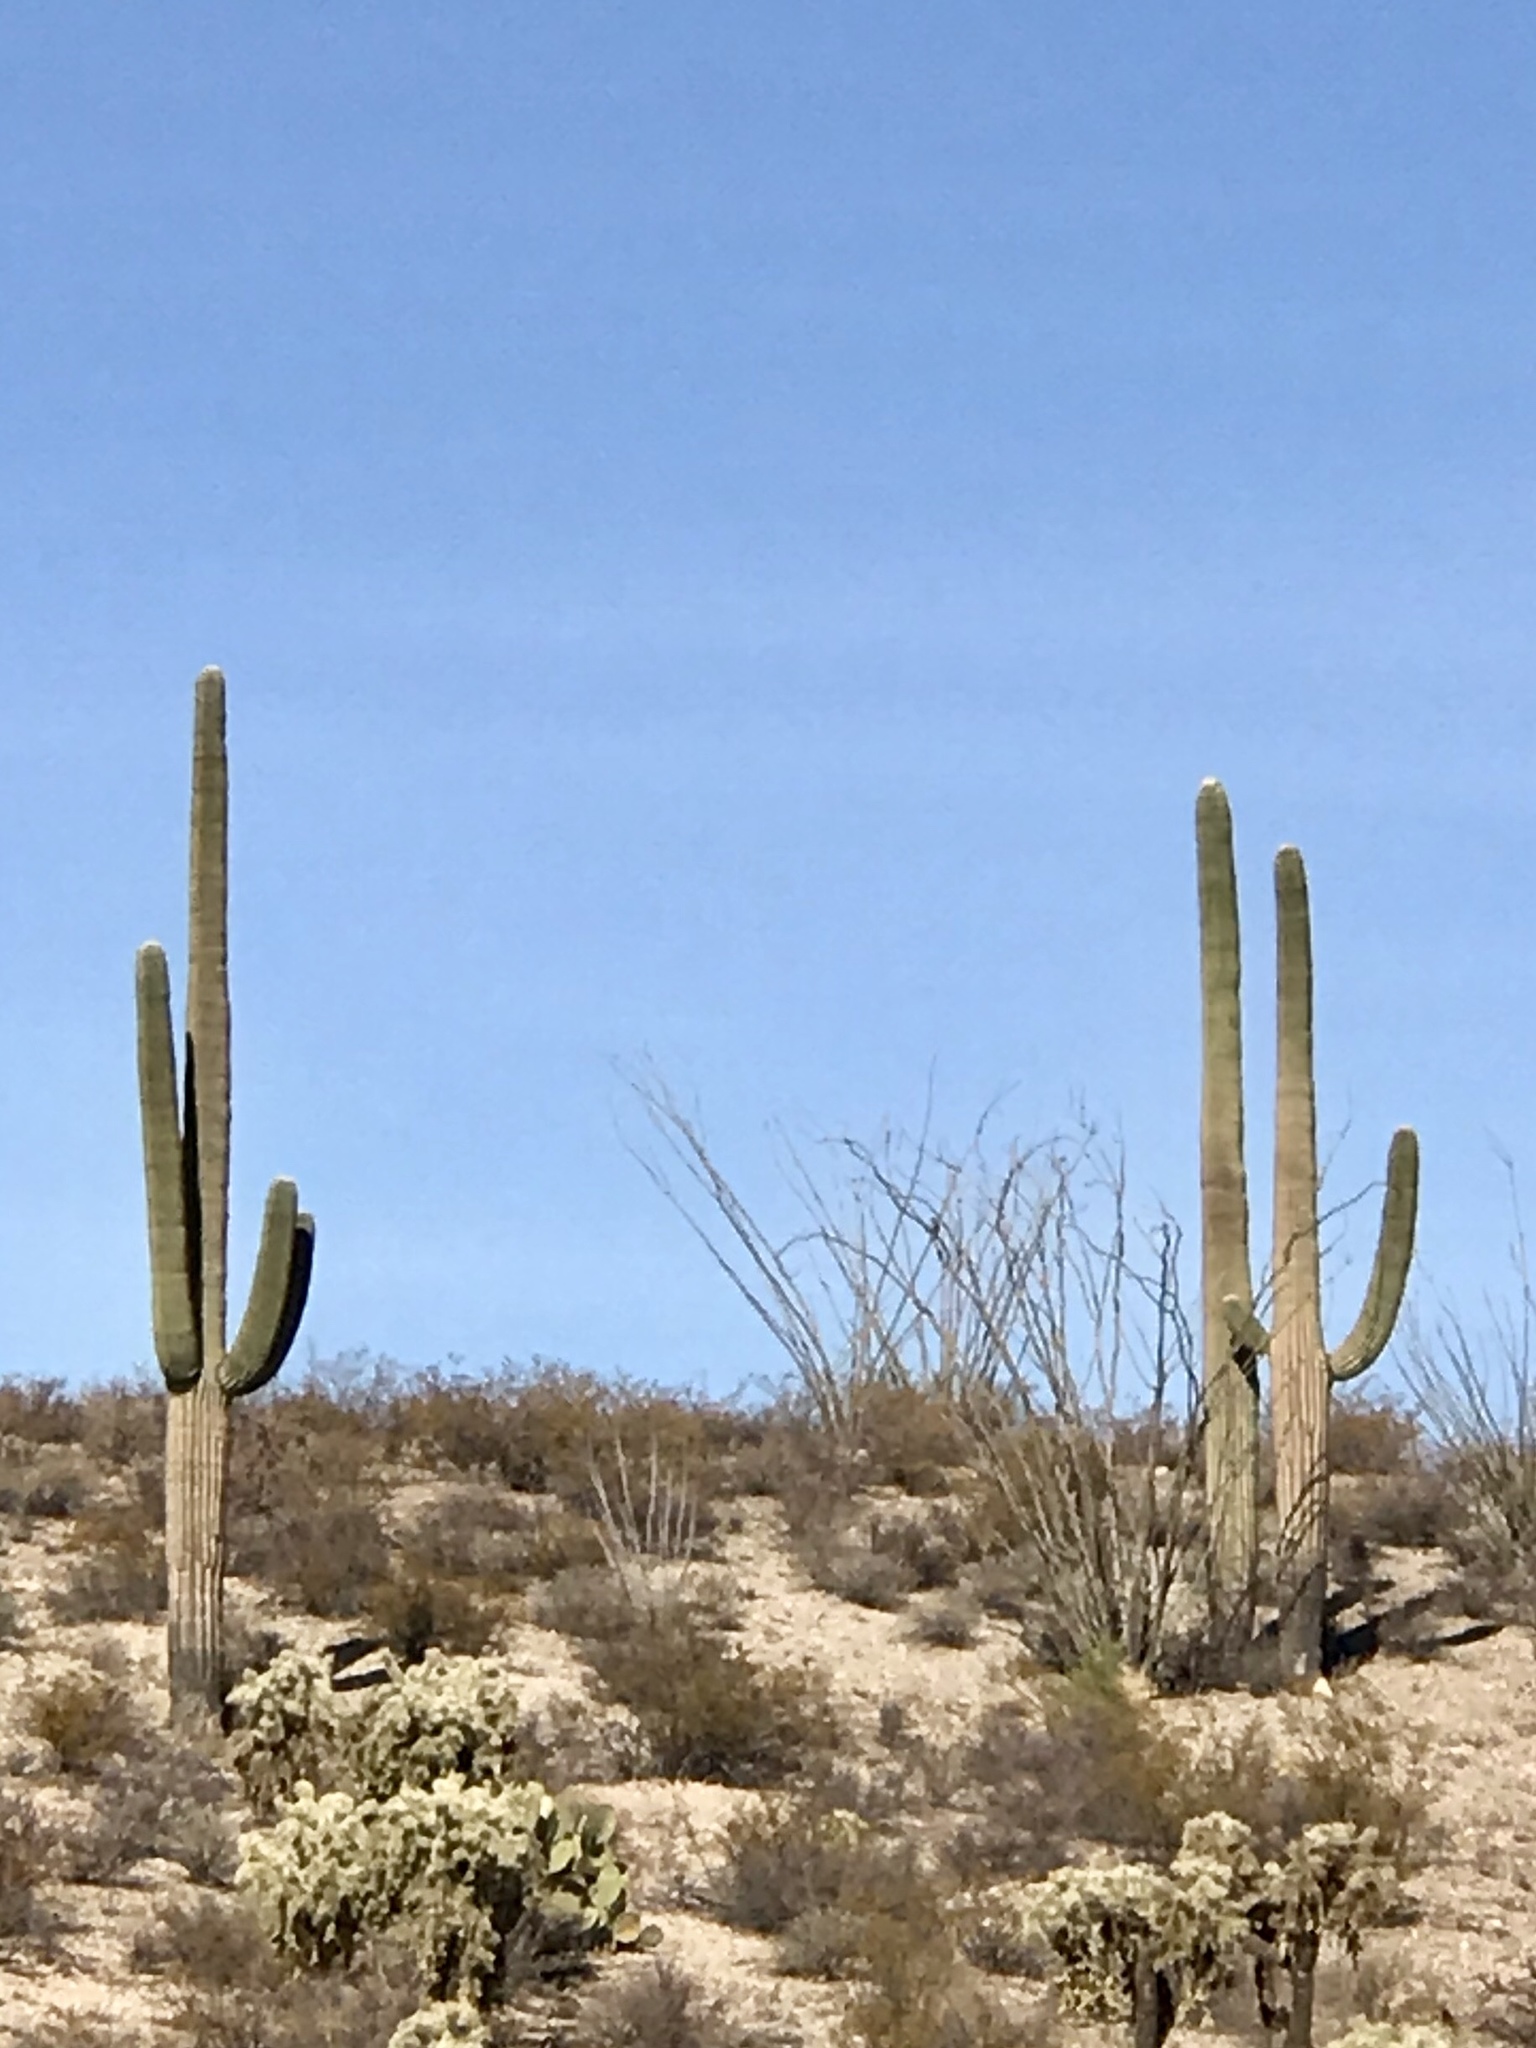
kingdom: Plantae
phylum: Tracheophyta
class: Magnoliopsida
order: Caryophyllales
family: Cactaceae
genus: Carnegiea
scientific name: Carnegiea gigantea
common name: Saguaro
